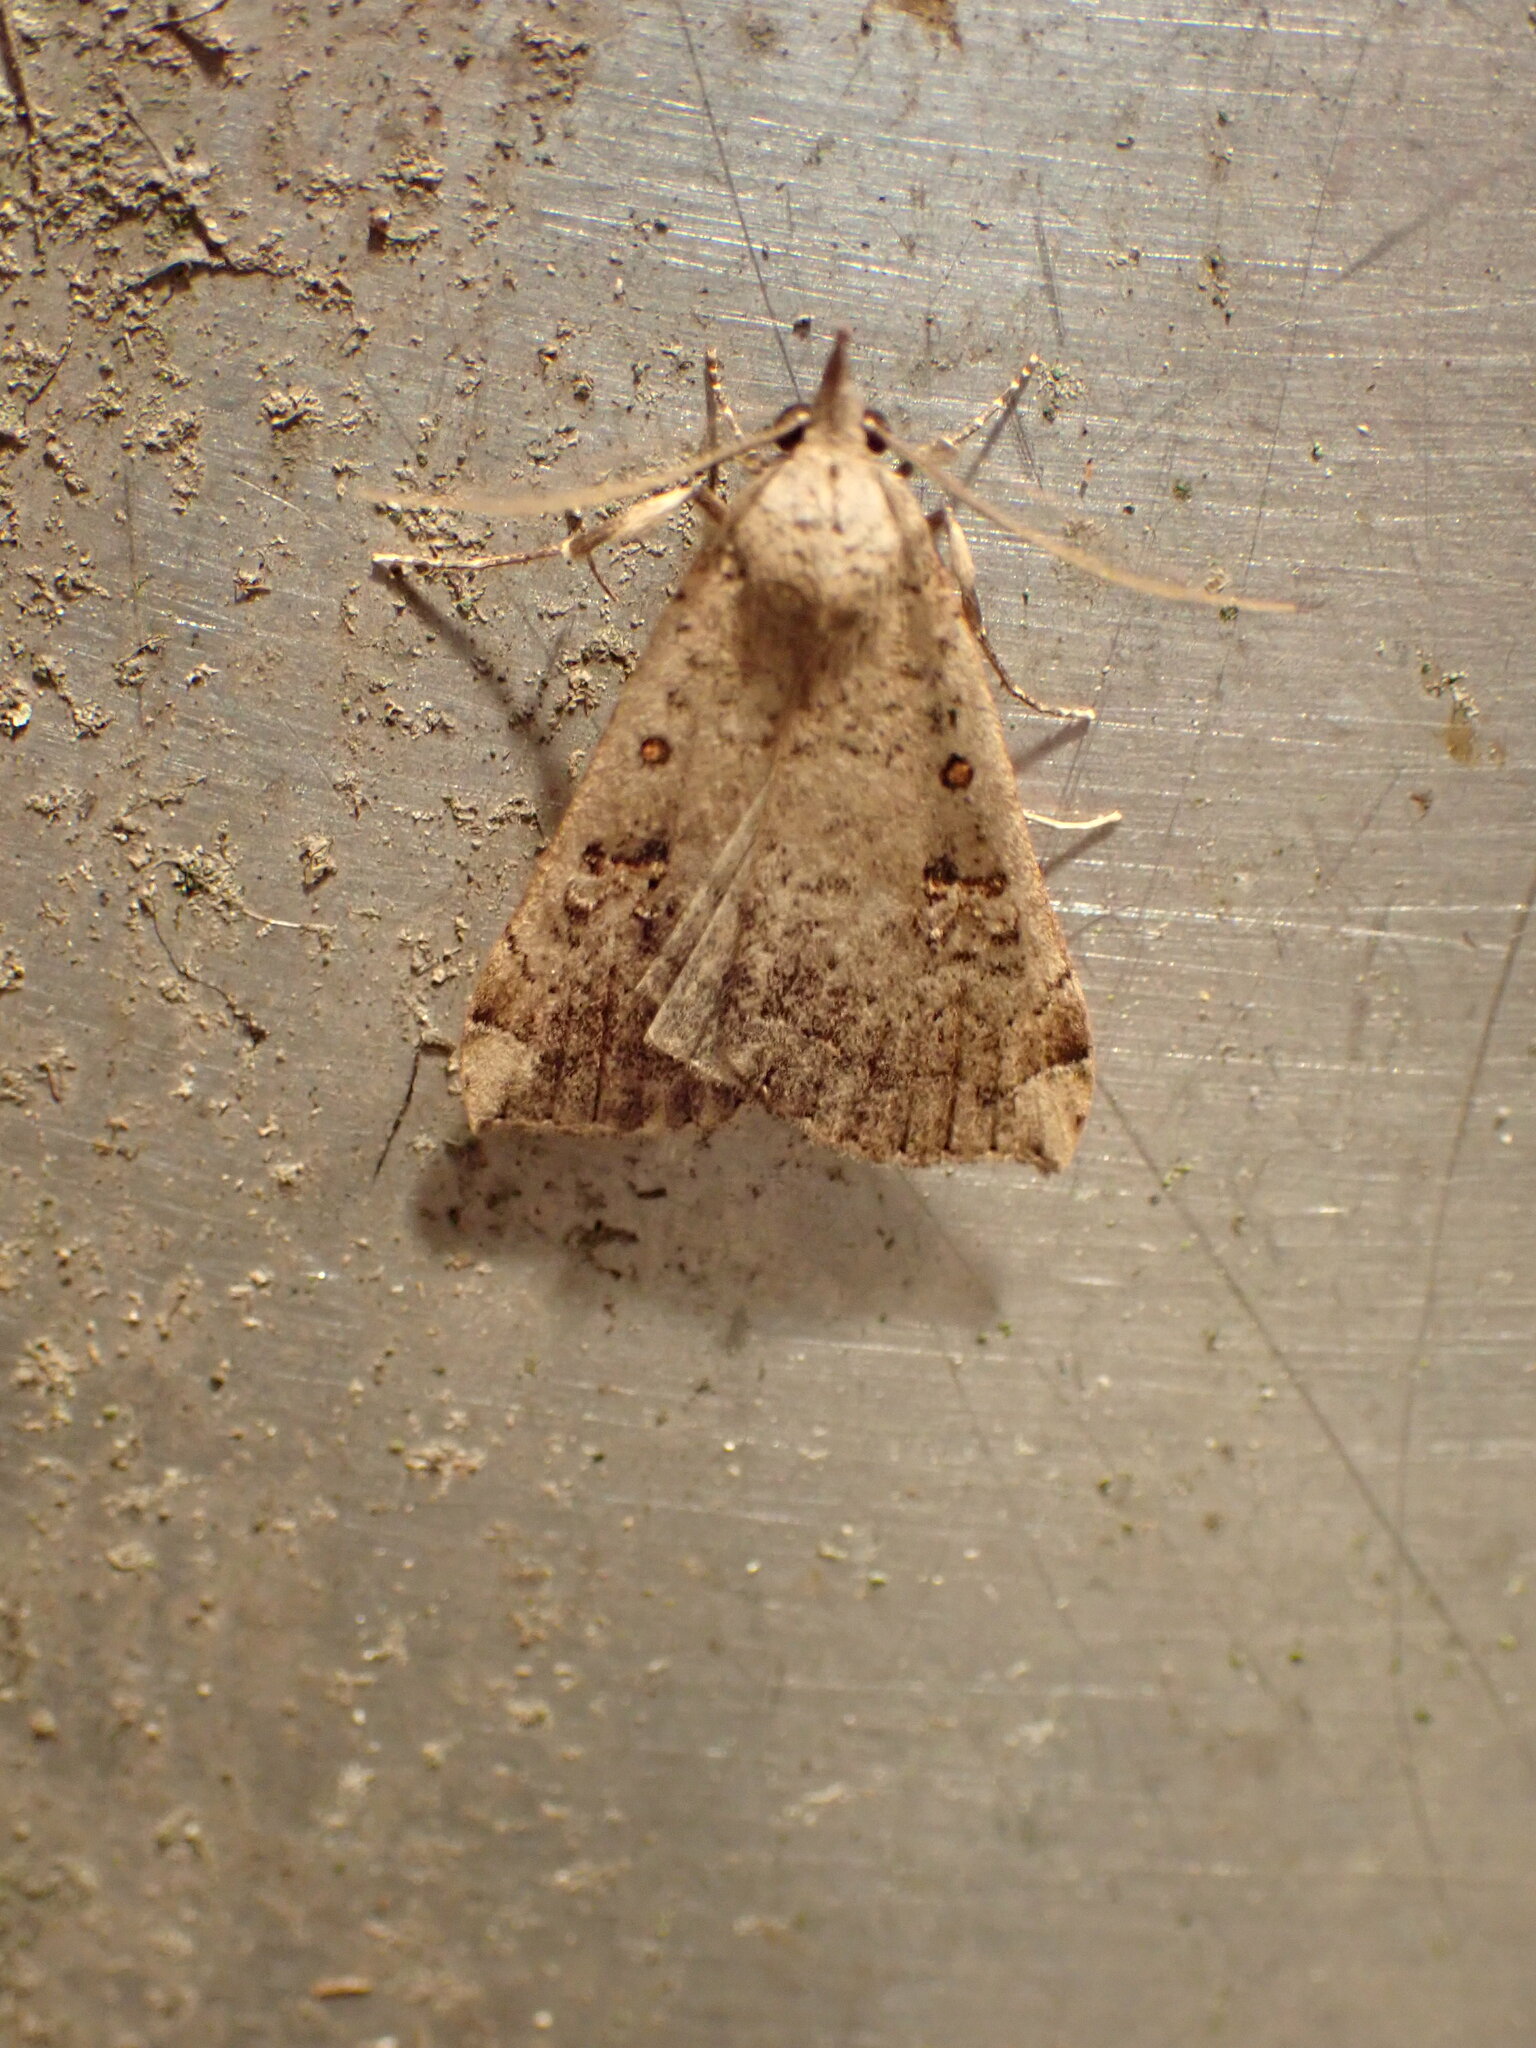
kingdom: Animalia
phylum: Arthropoda
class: Insecta
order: Lepidoptera
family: Erebidae
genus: Rhapsa
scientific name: Rhapsa scotosialis
